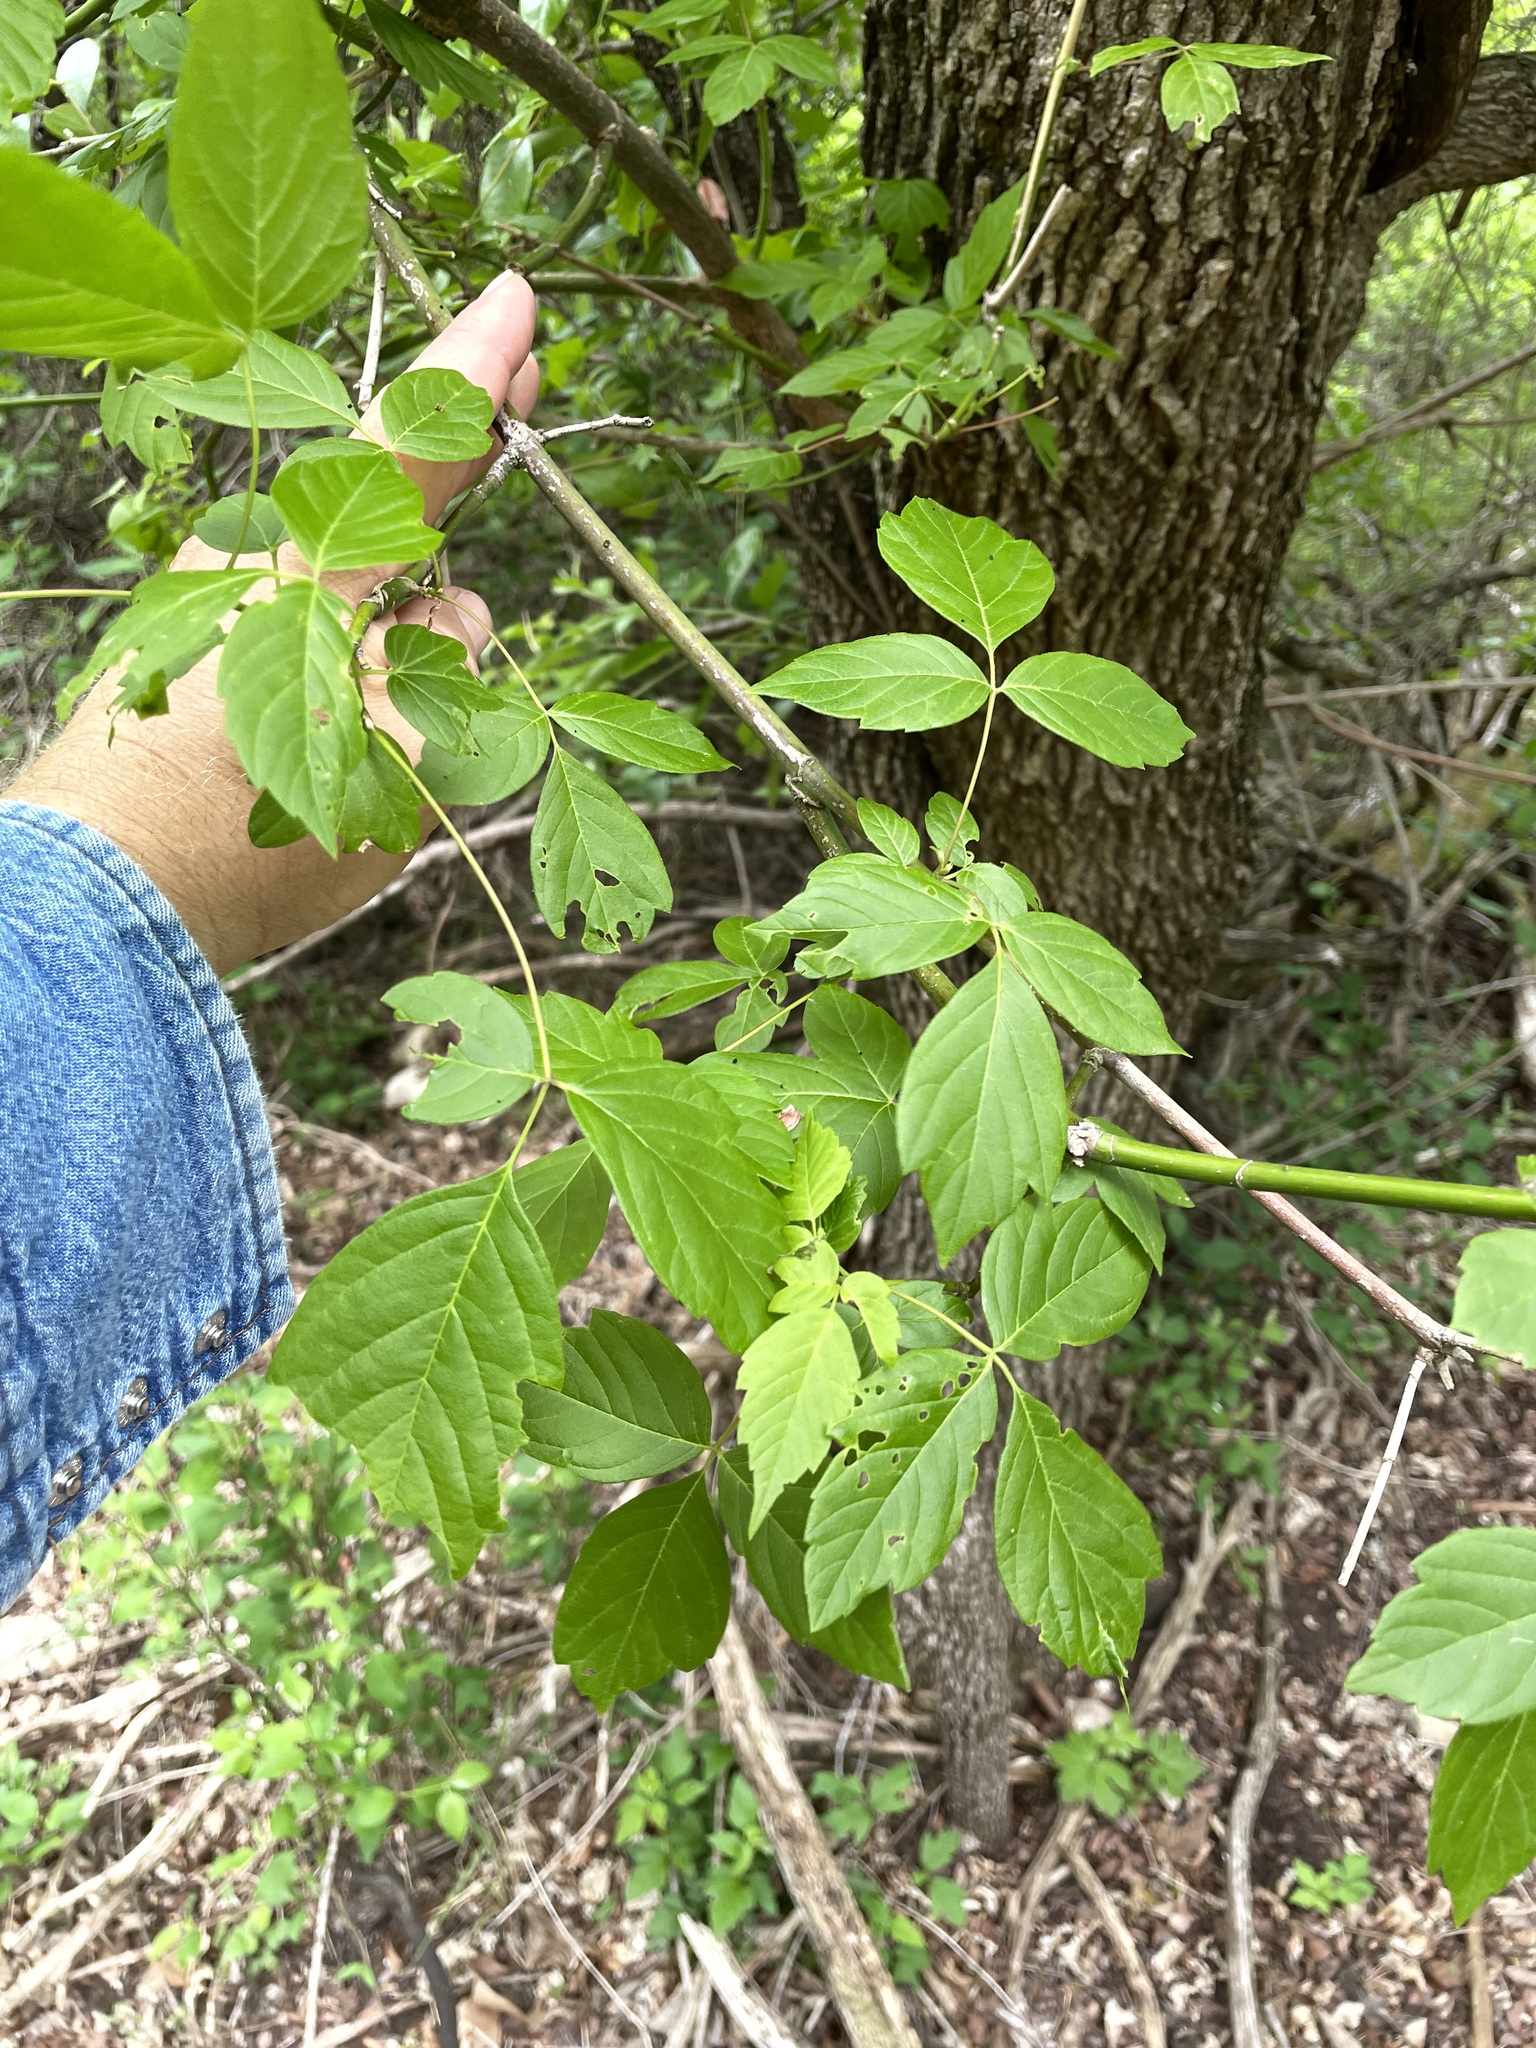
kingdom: Plantae
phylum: Tracheophyta
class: Magnoliopsida
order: Sapindales
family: Sapindaceae
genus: Acer
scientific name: Acer negundo
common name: Ashleaf maple
